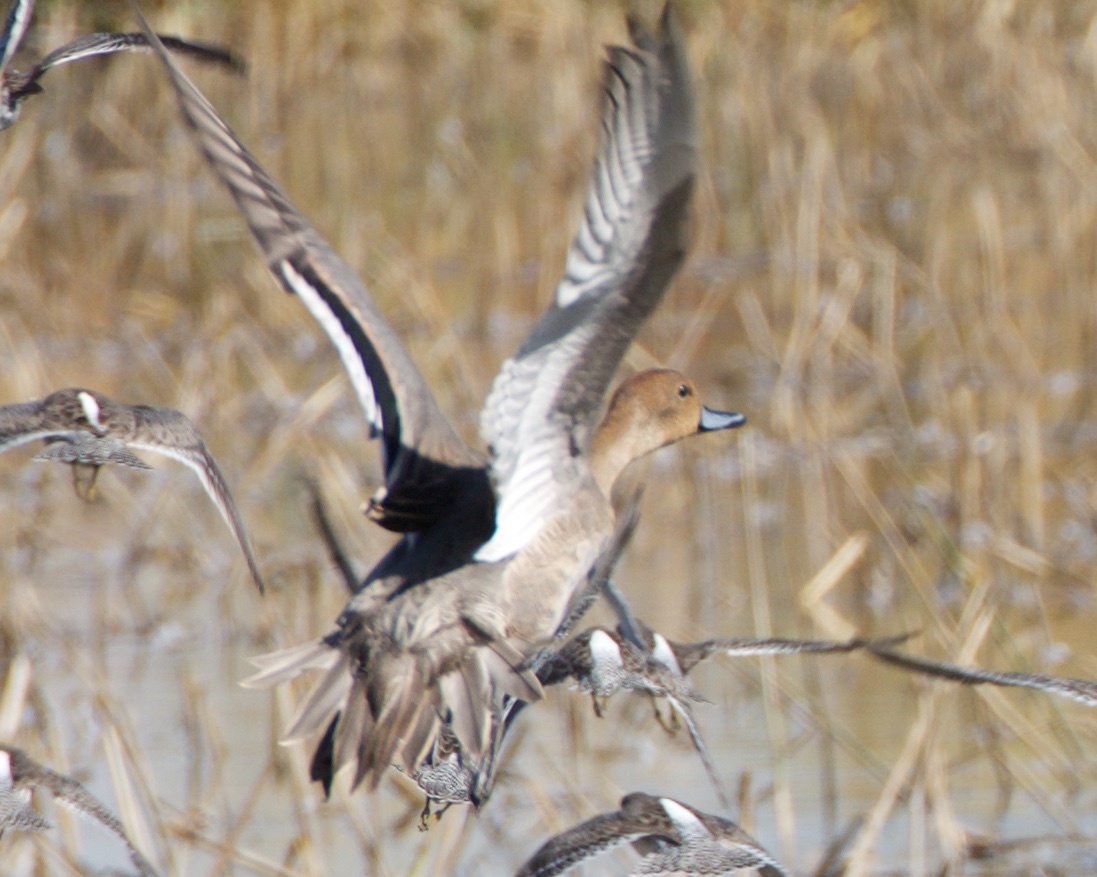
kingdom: Animalia
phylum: Chordata
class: Aves
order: Anseriformes
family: Anatidae
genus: Anas
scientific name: Anas acuta
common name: Northern pintail
